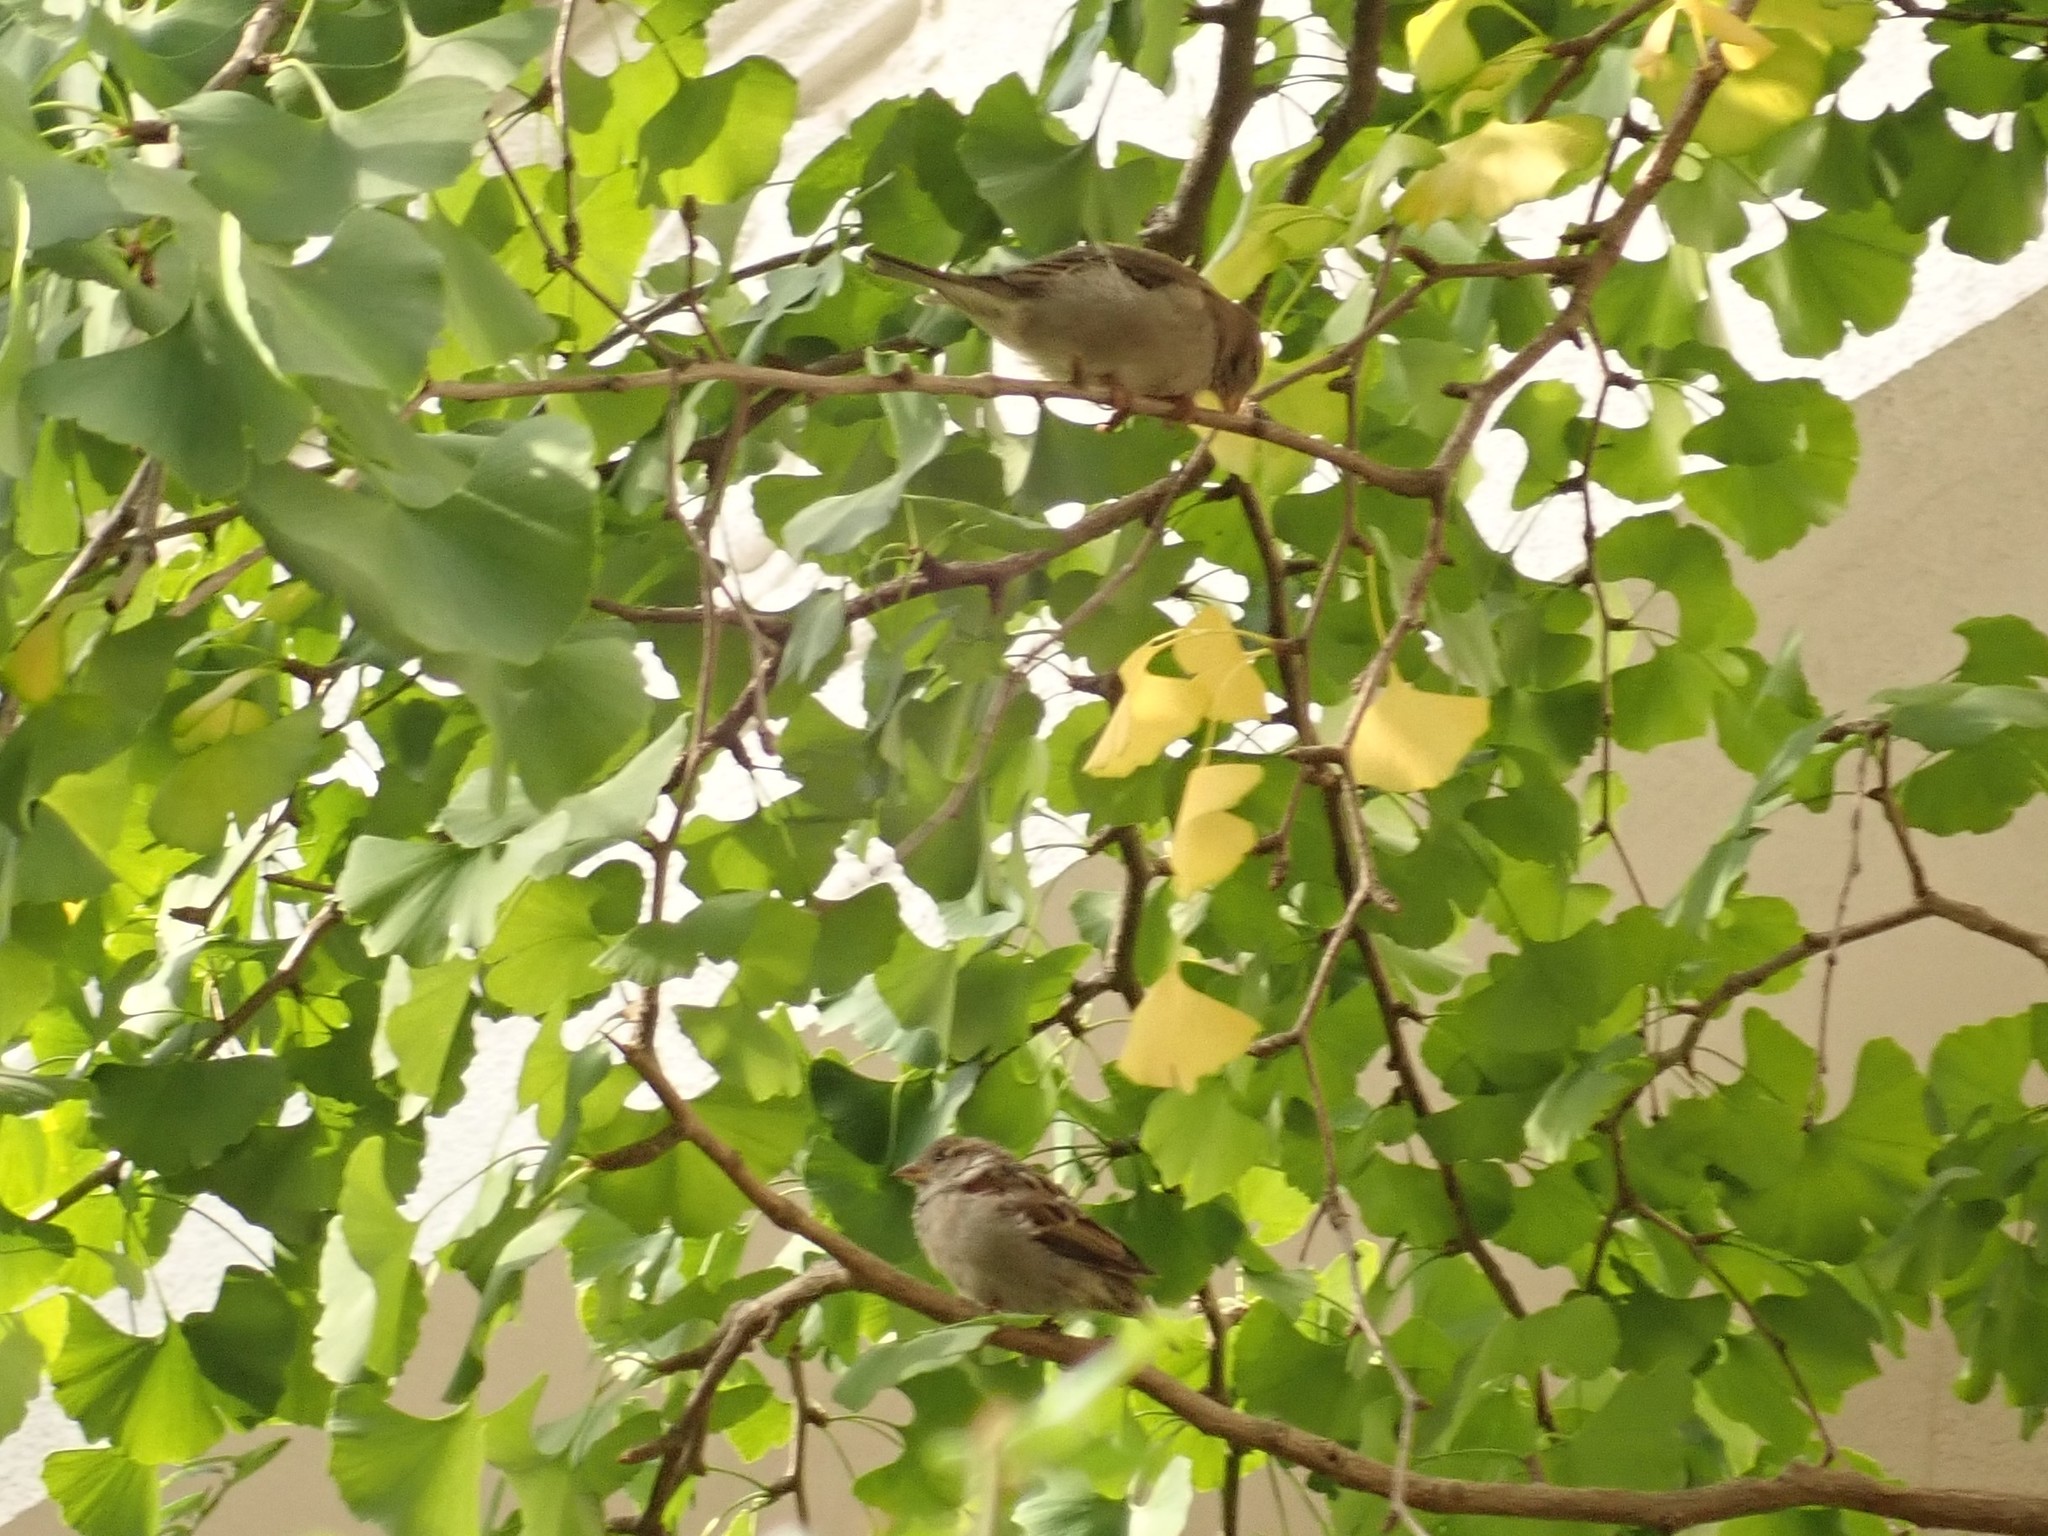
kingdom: Animalia
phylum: Chordata
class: Aves
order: Passeriformes
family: Passeridae
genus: Passer
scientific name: Passer domesticus
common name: House sparrow
